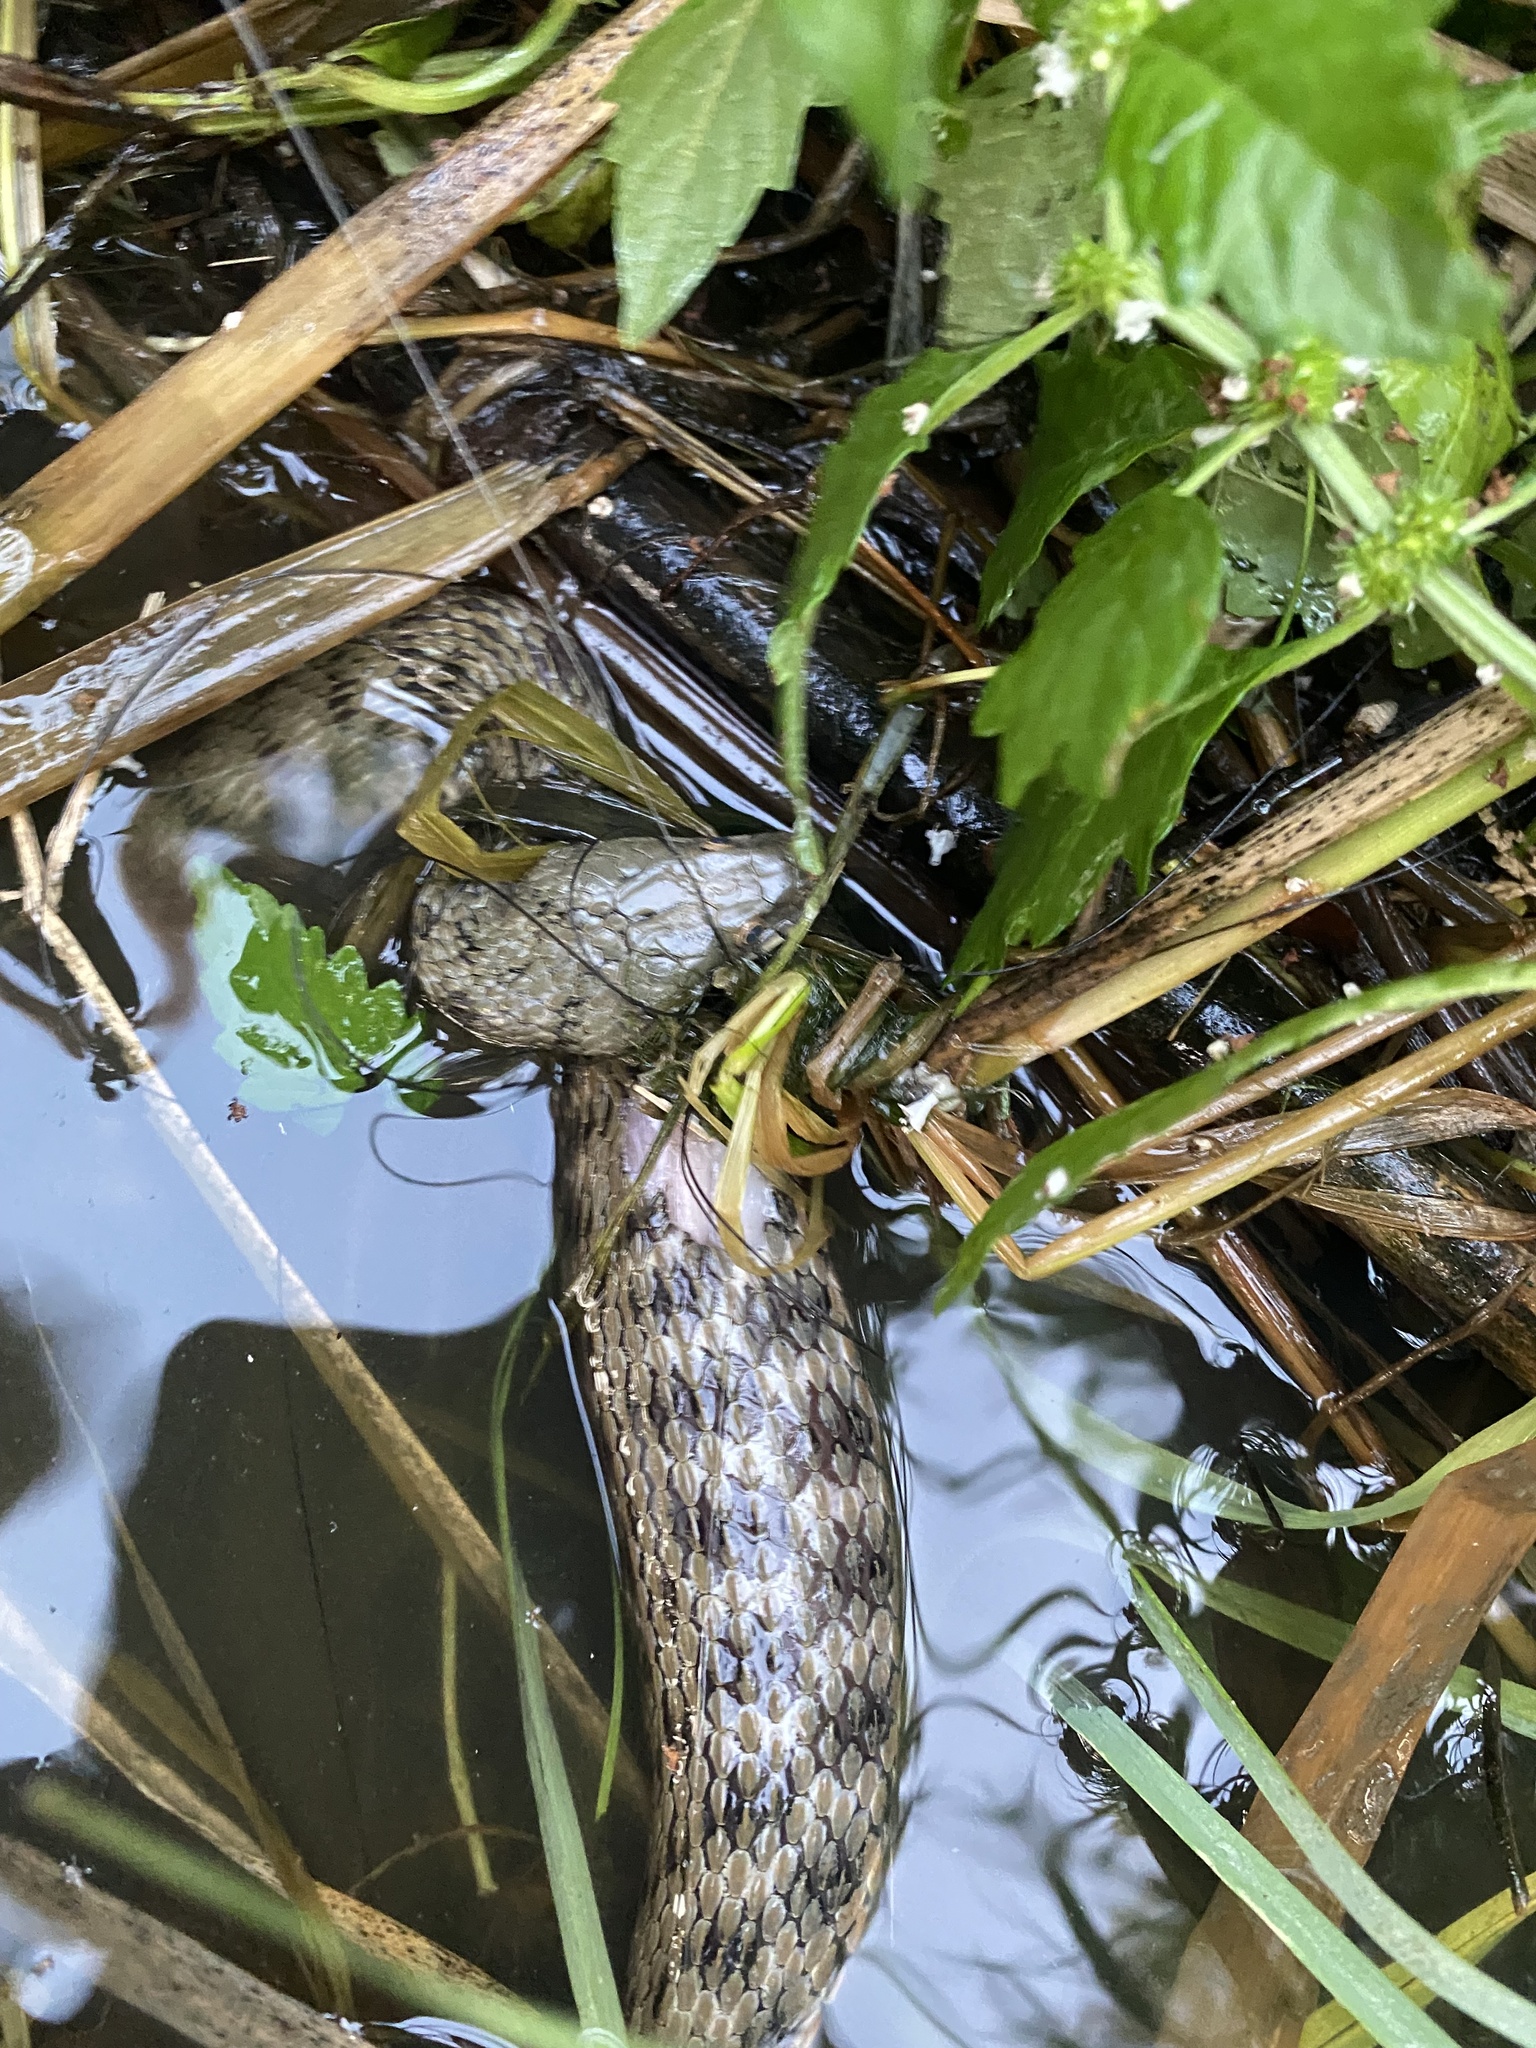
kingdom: Animalia
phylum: Chordata
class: Squamata
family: Colubridae
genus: Natrix
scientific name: Natrix tessellata
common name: Dice snake
